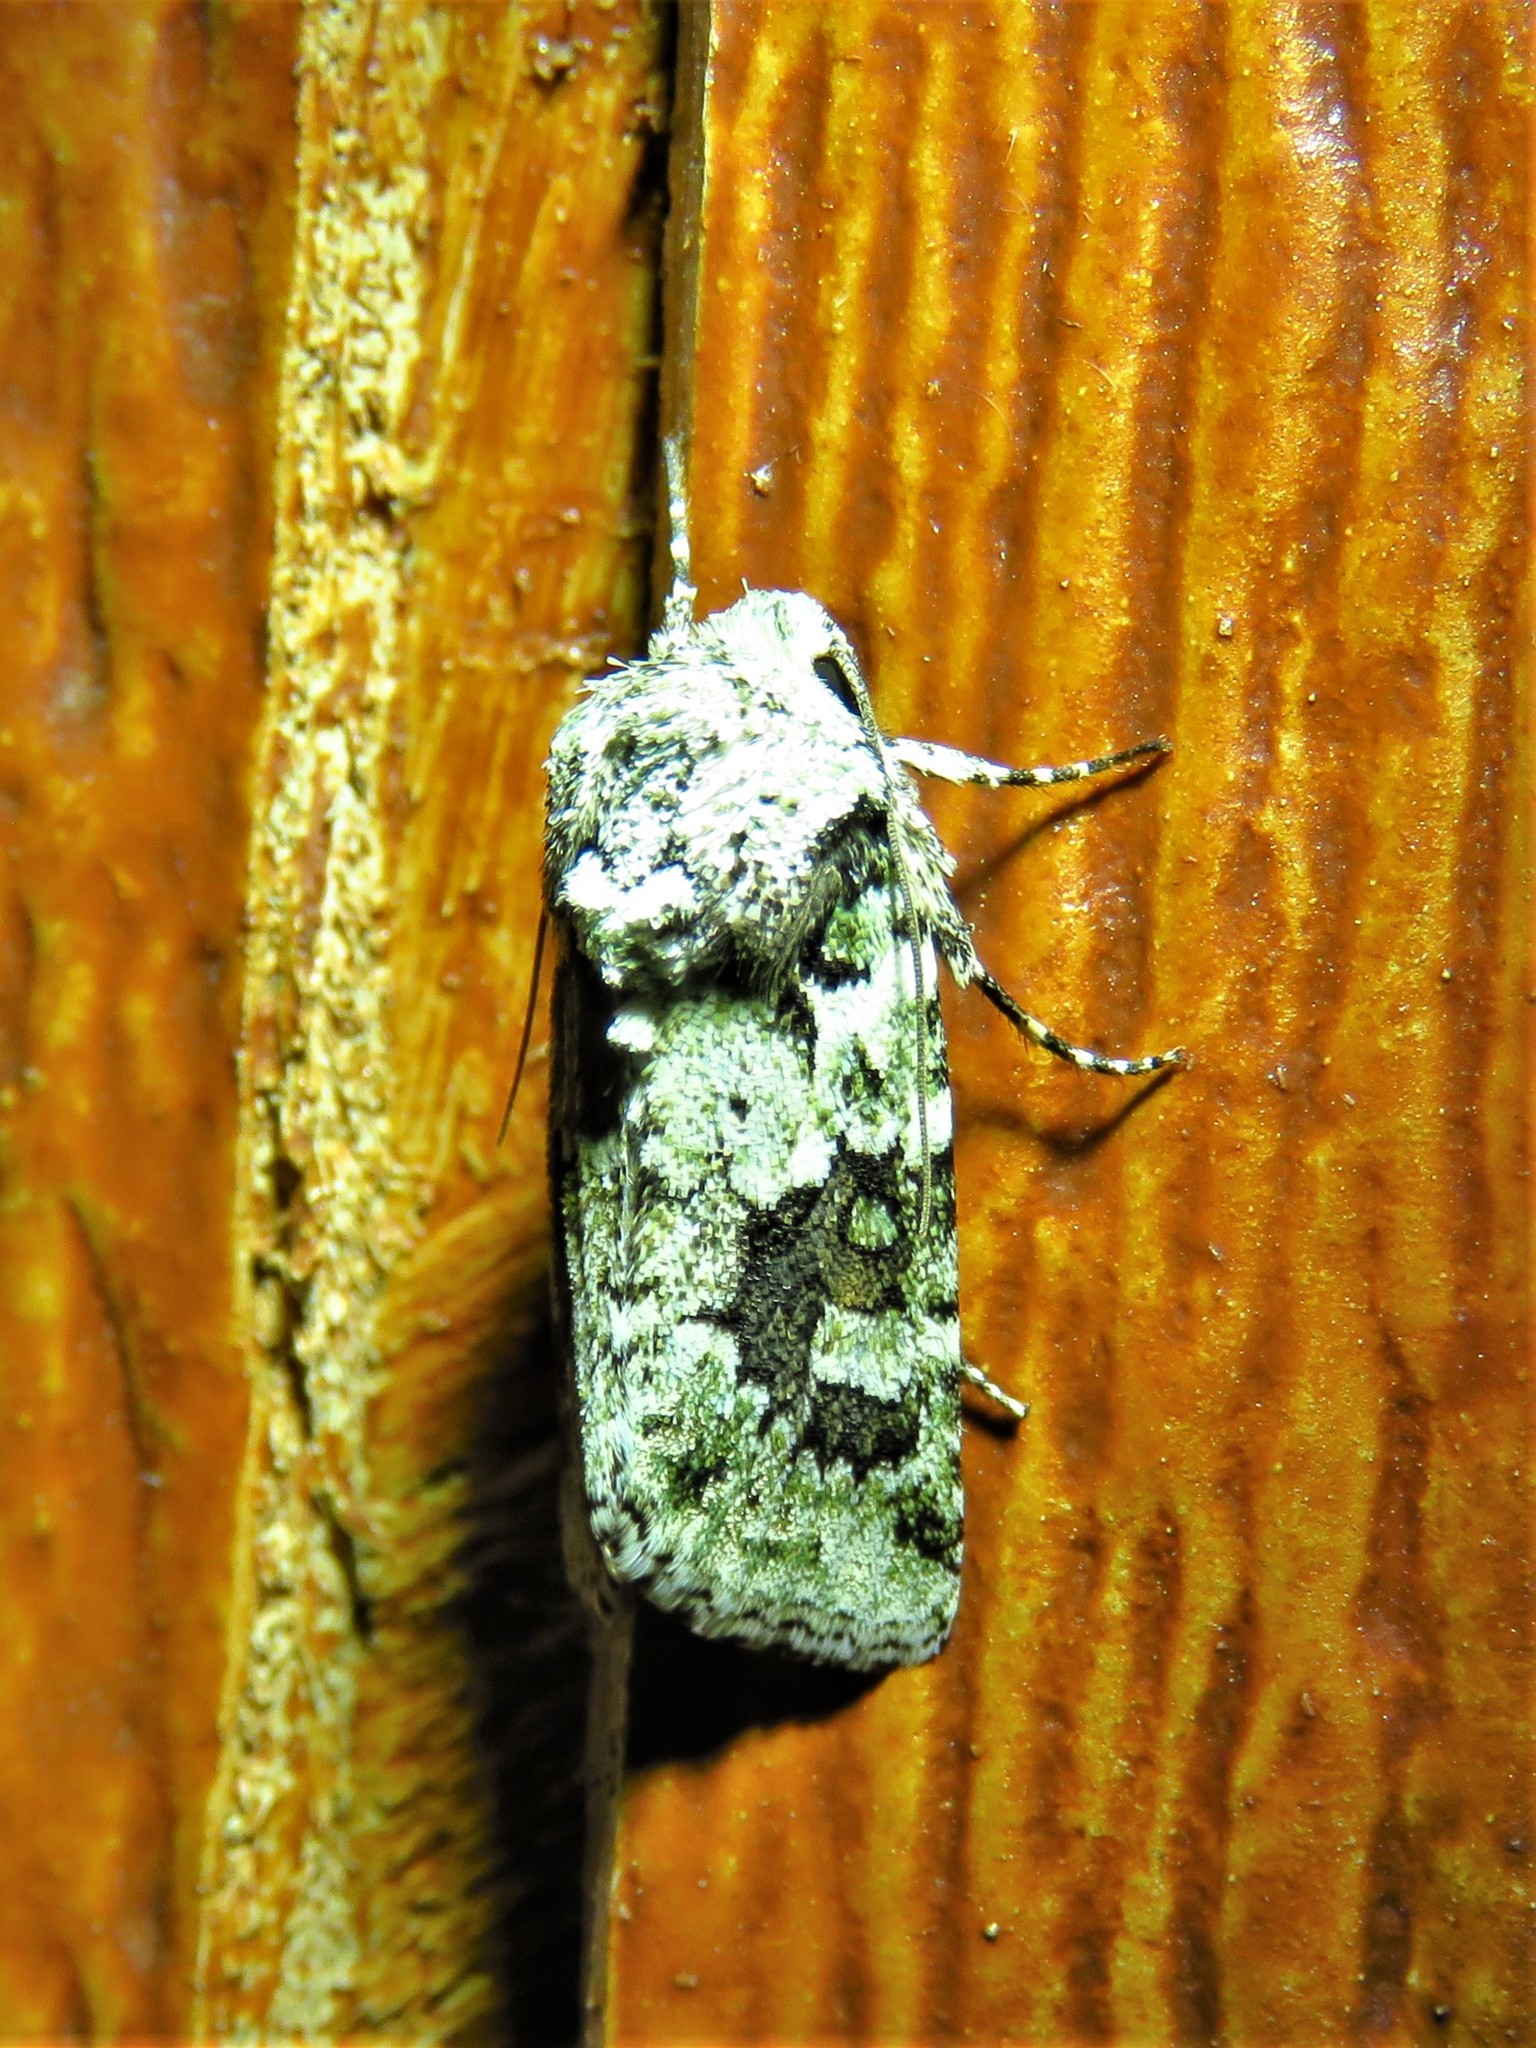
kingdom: Animalia
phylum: Arthropoda
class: Insecta
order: Lepidoptera
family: Noctuidae
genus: Lacinipolia
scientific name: Lacinipolia laudabilis
